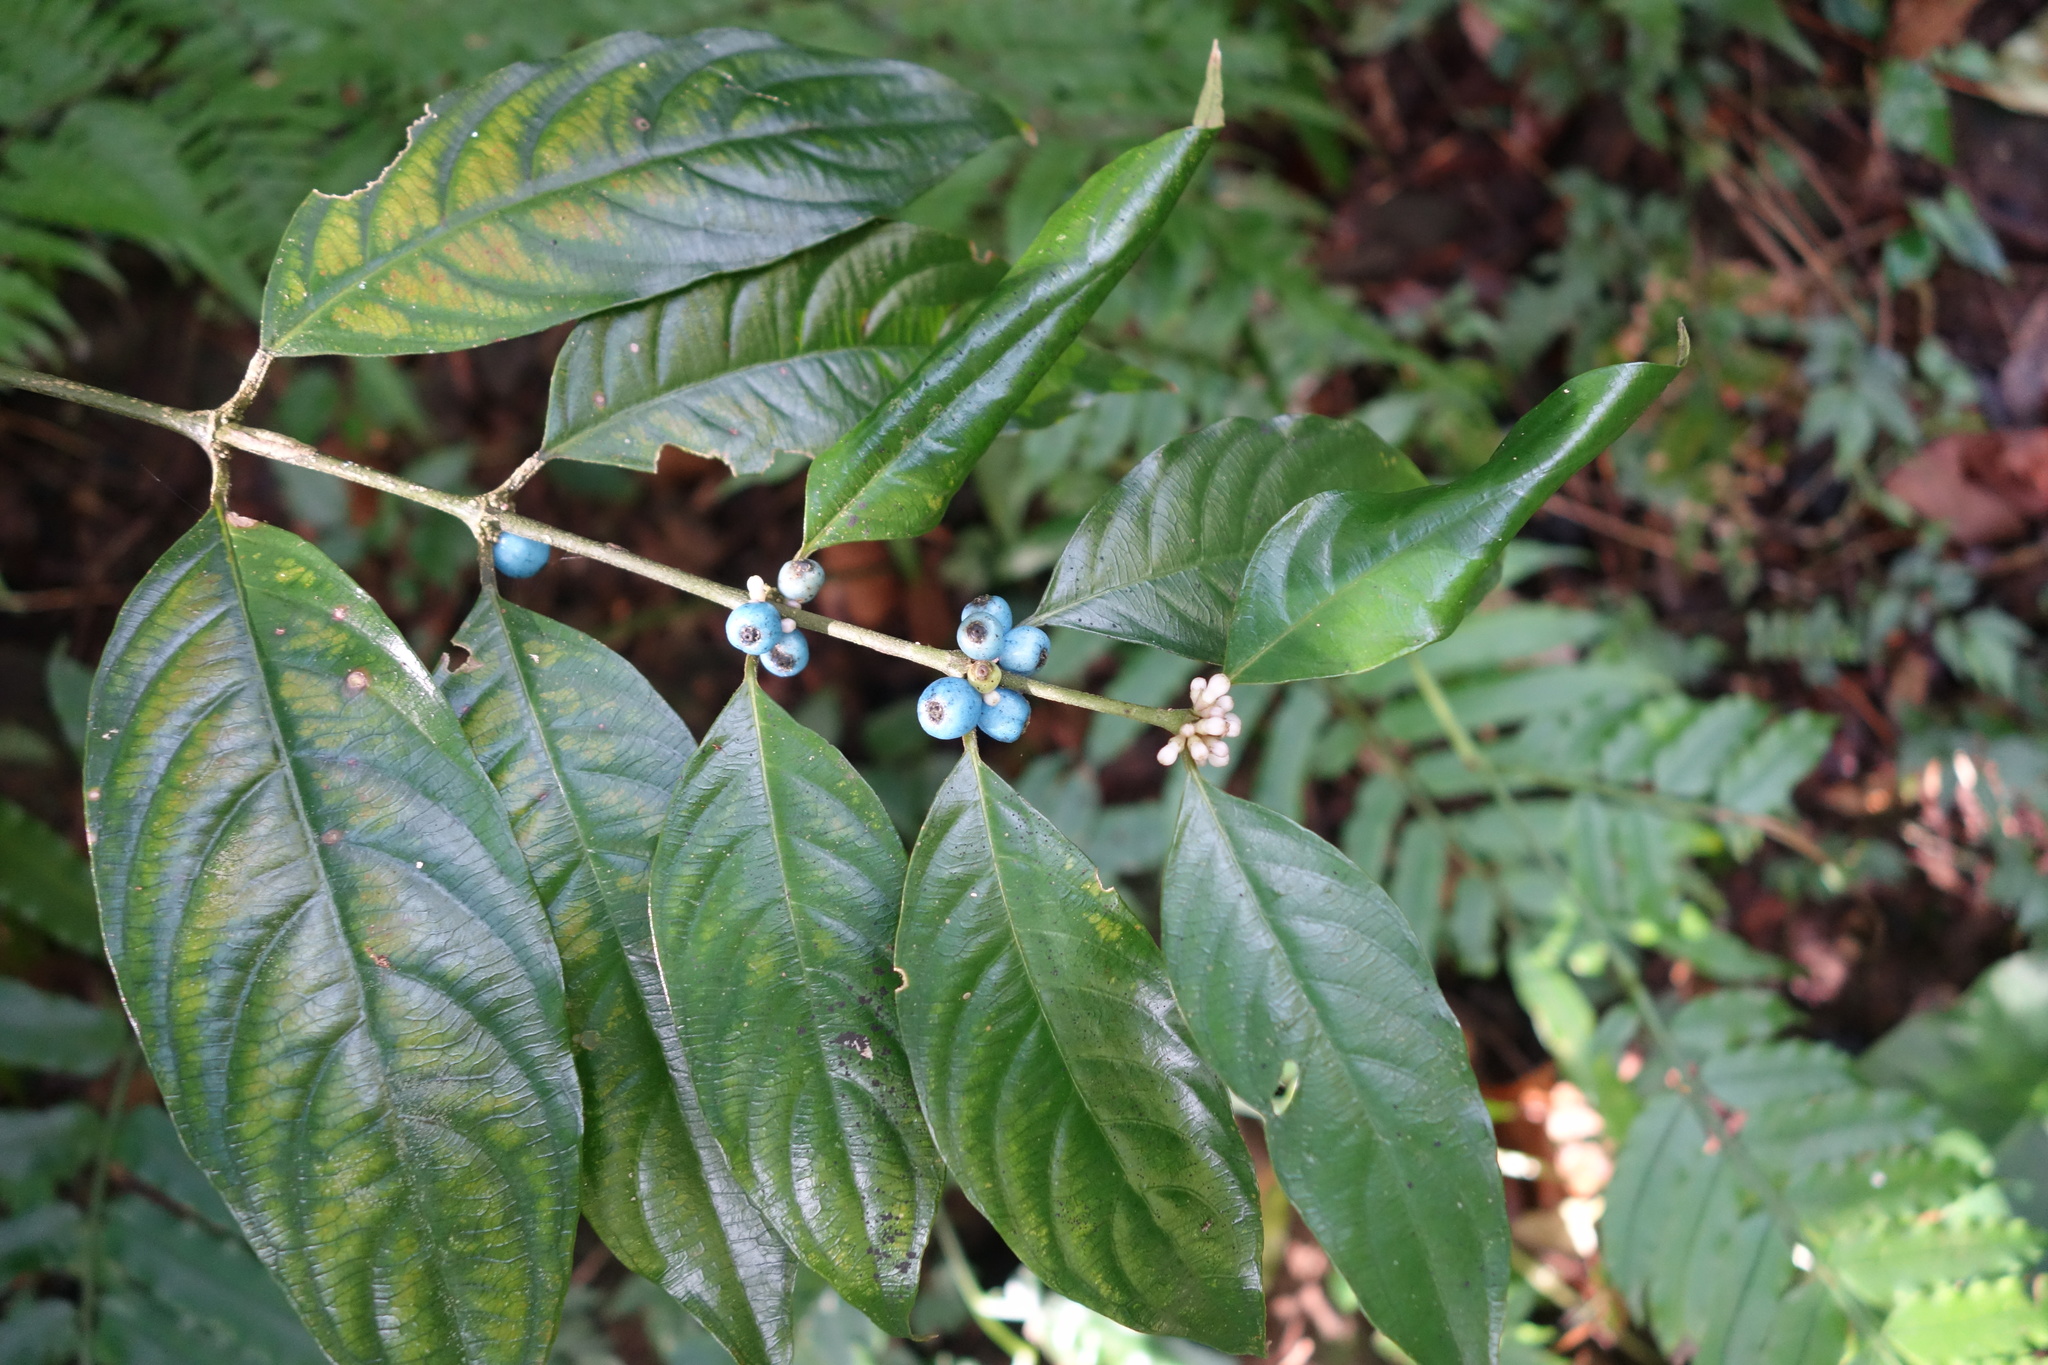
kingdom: Plantae
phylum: Tracheophyta
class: Magnoliopsida
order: Gentianales
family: Rubiaceae
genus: Lasianthus
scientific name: Lasianthus fordii
